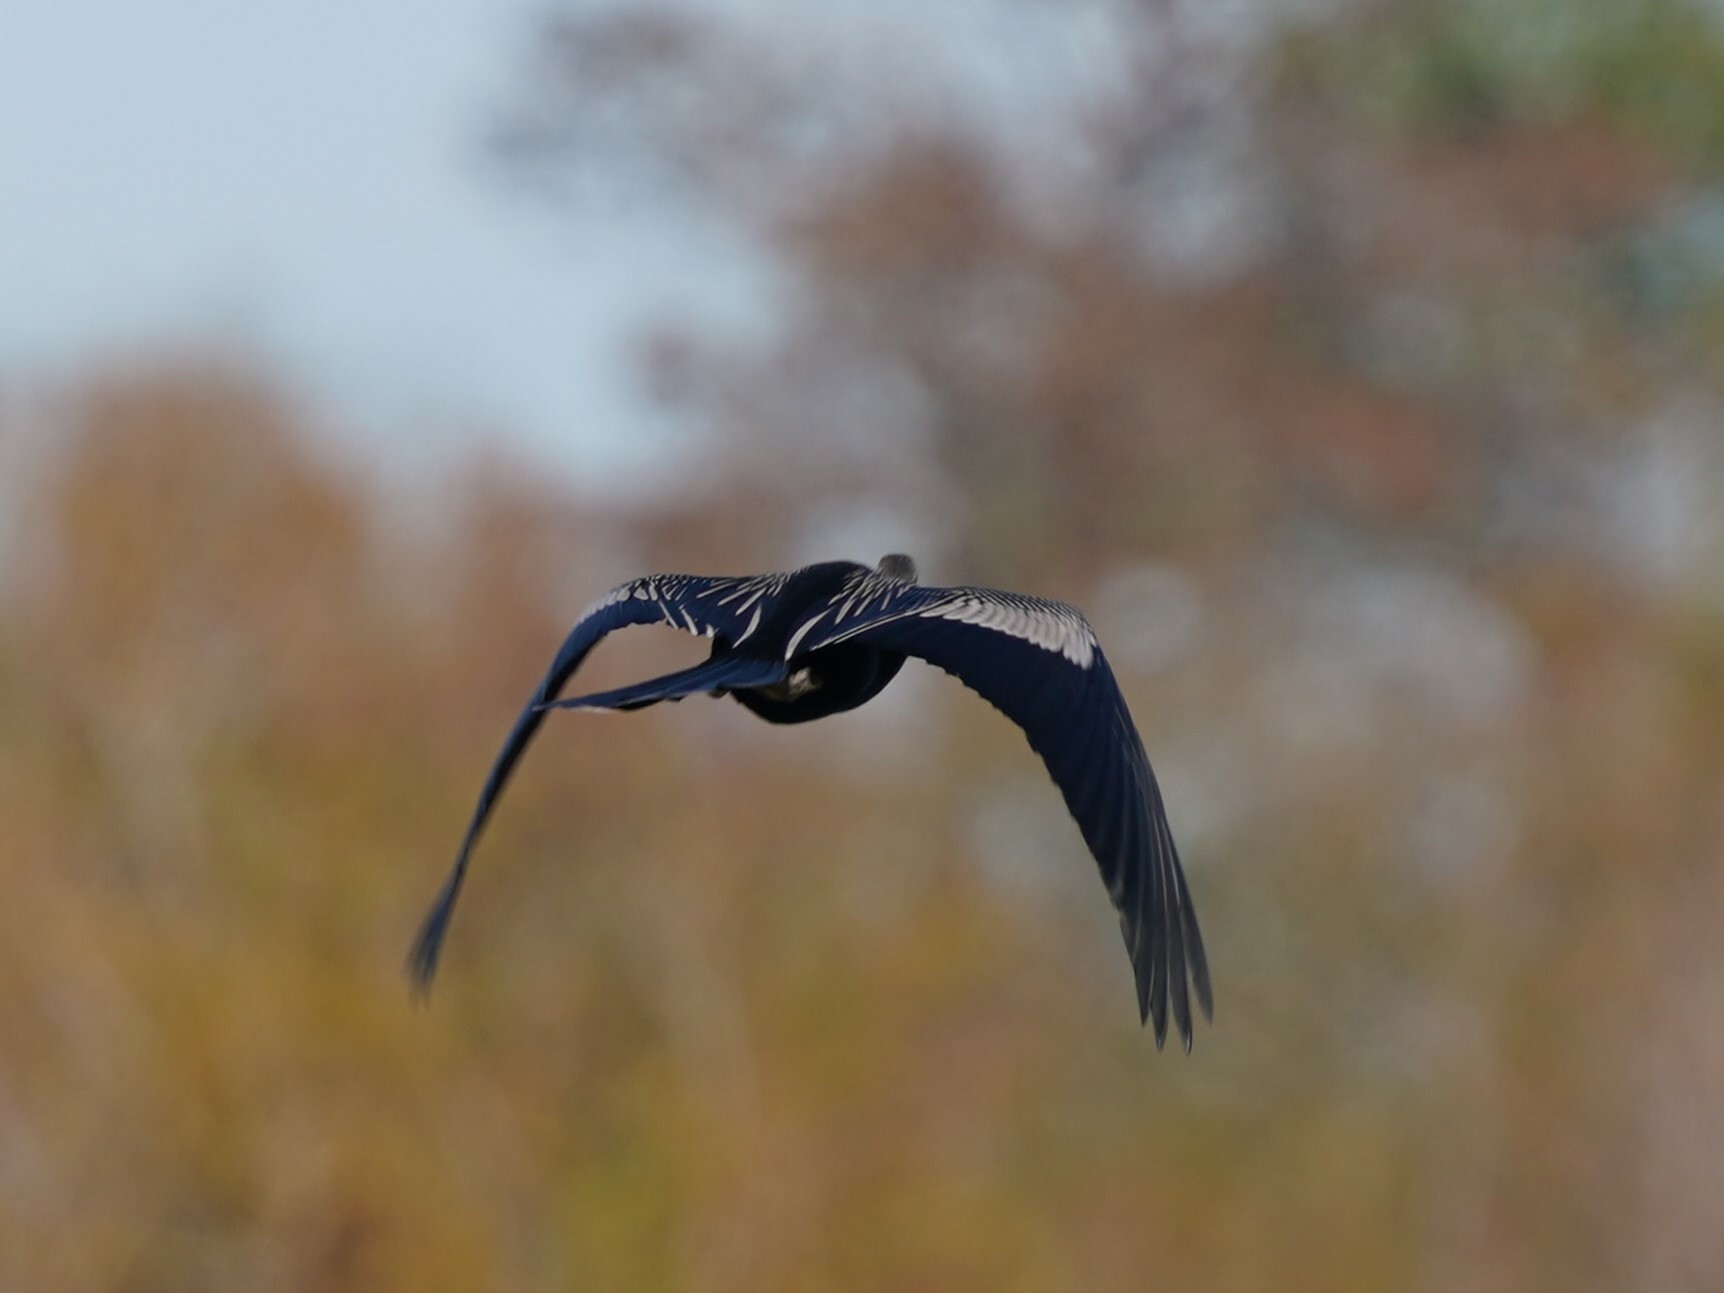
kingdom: Animalia
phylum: Chordata
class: Aves
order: Suliformes
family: Anhingidae
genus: Anhinga
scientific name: Anhinga anhinga
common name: Anhinga
